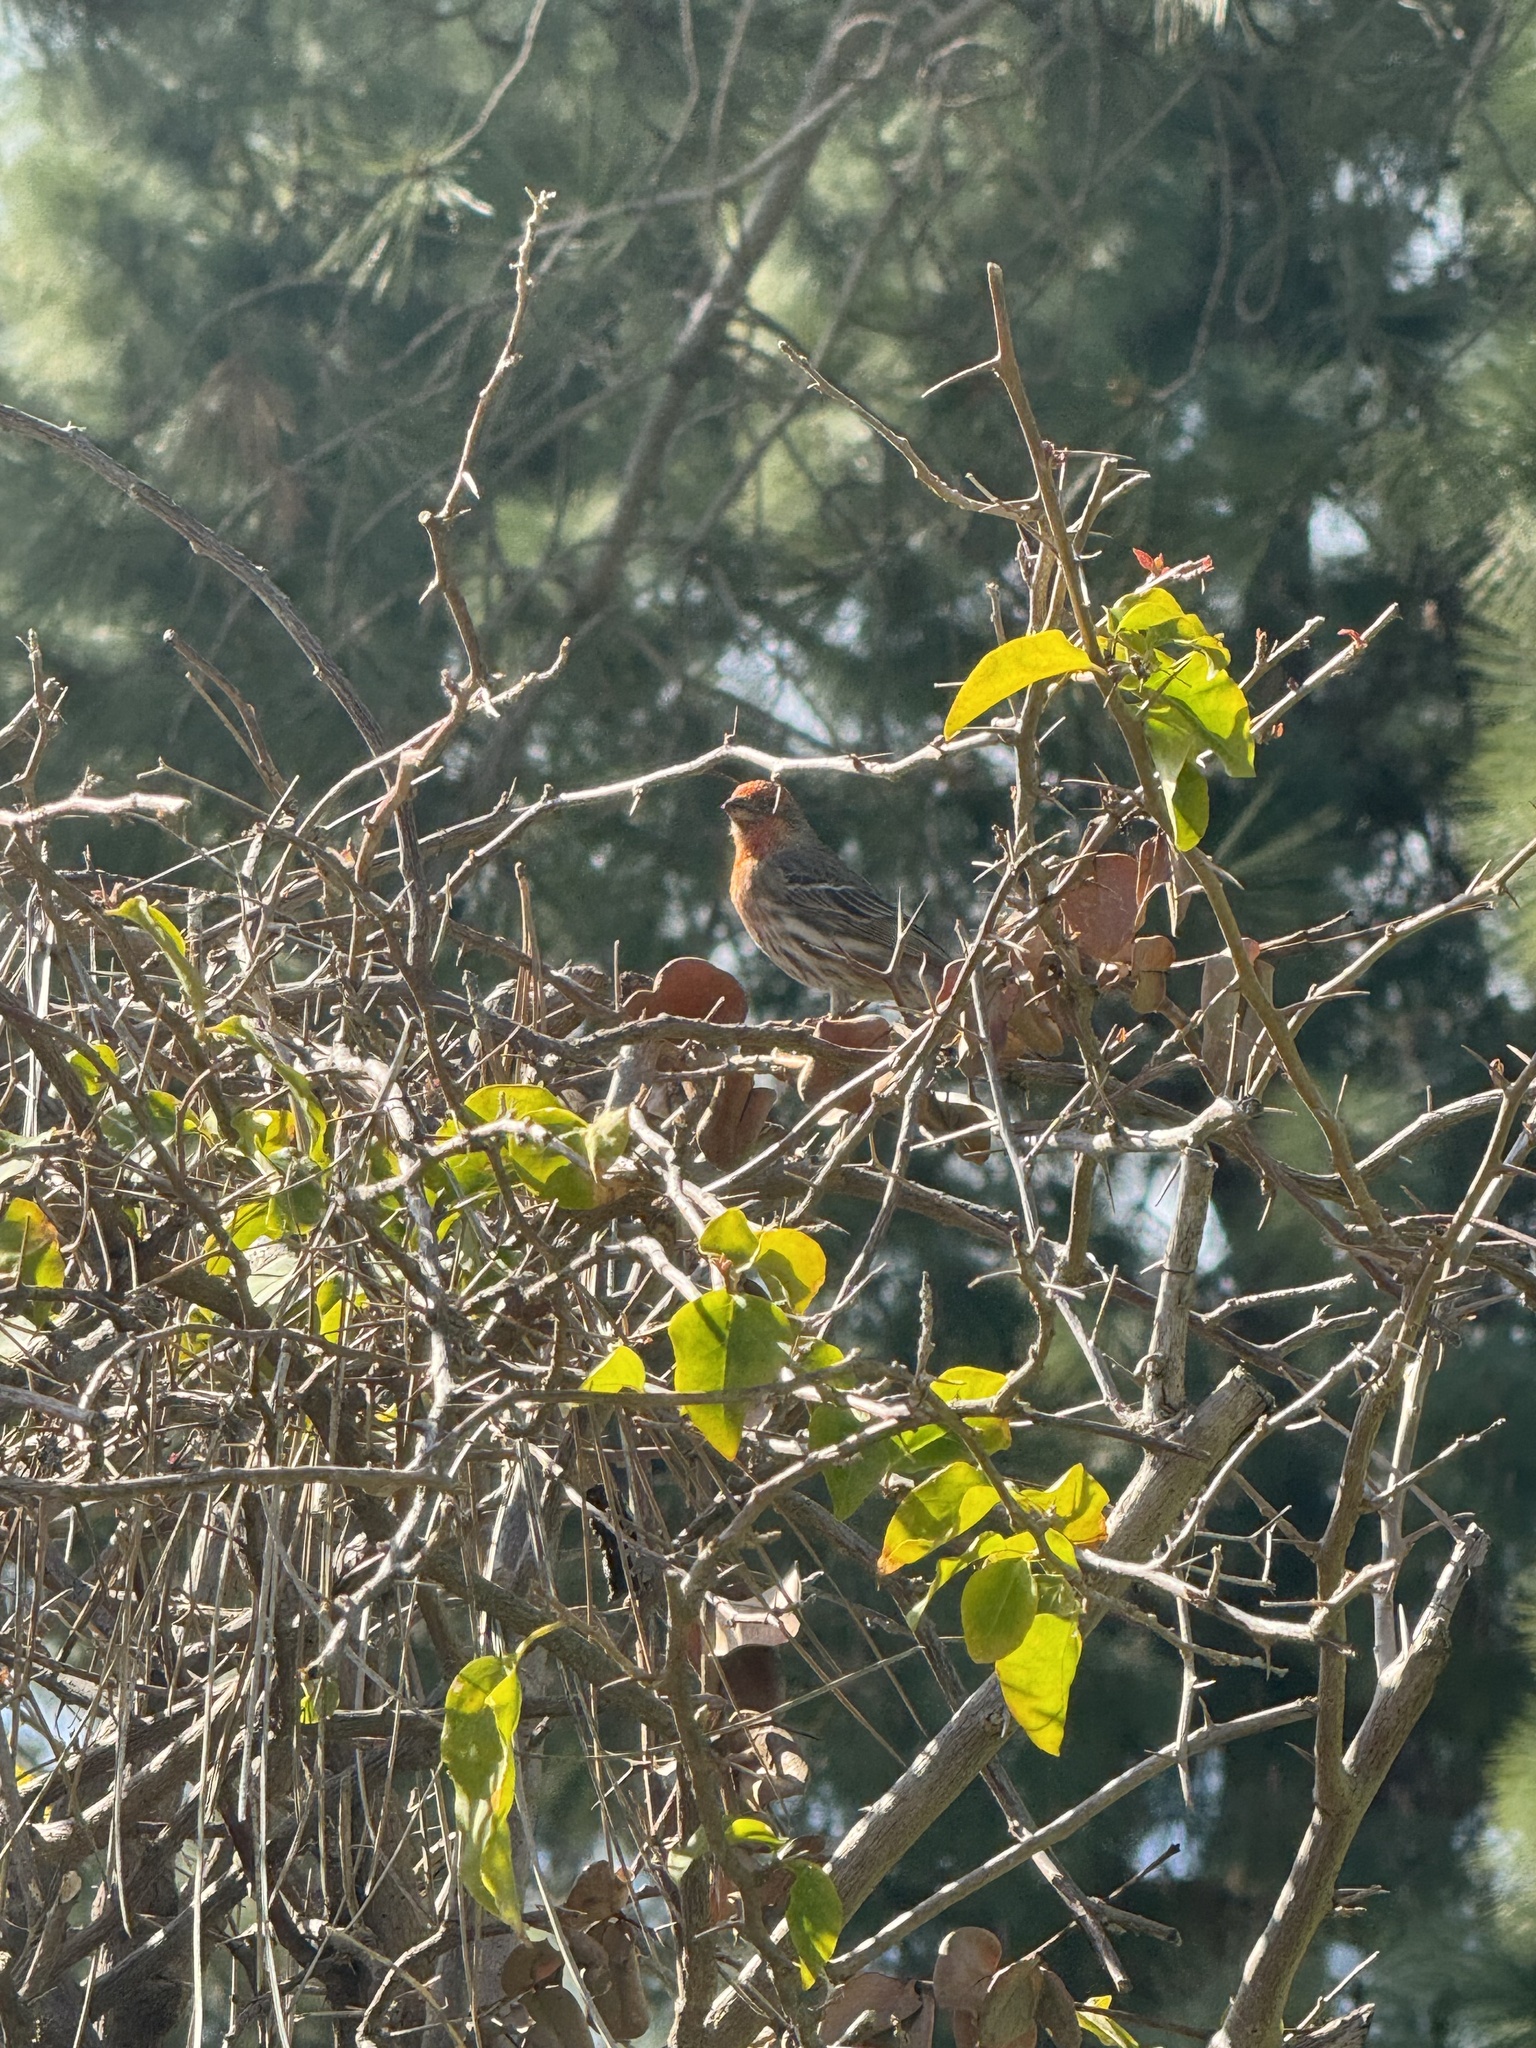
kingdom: Animalia
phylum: Chordata
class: Aves
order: Passeriformes
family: Fringillidae
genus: Haemorhous
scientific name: Haemorhous mexicanus
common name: House finch
